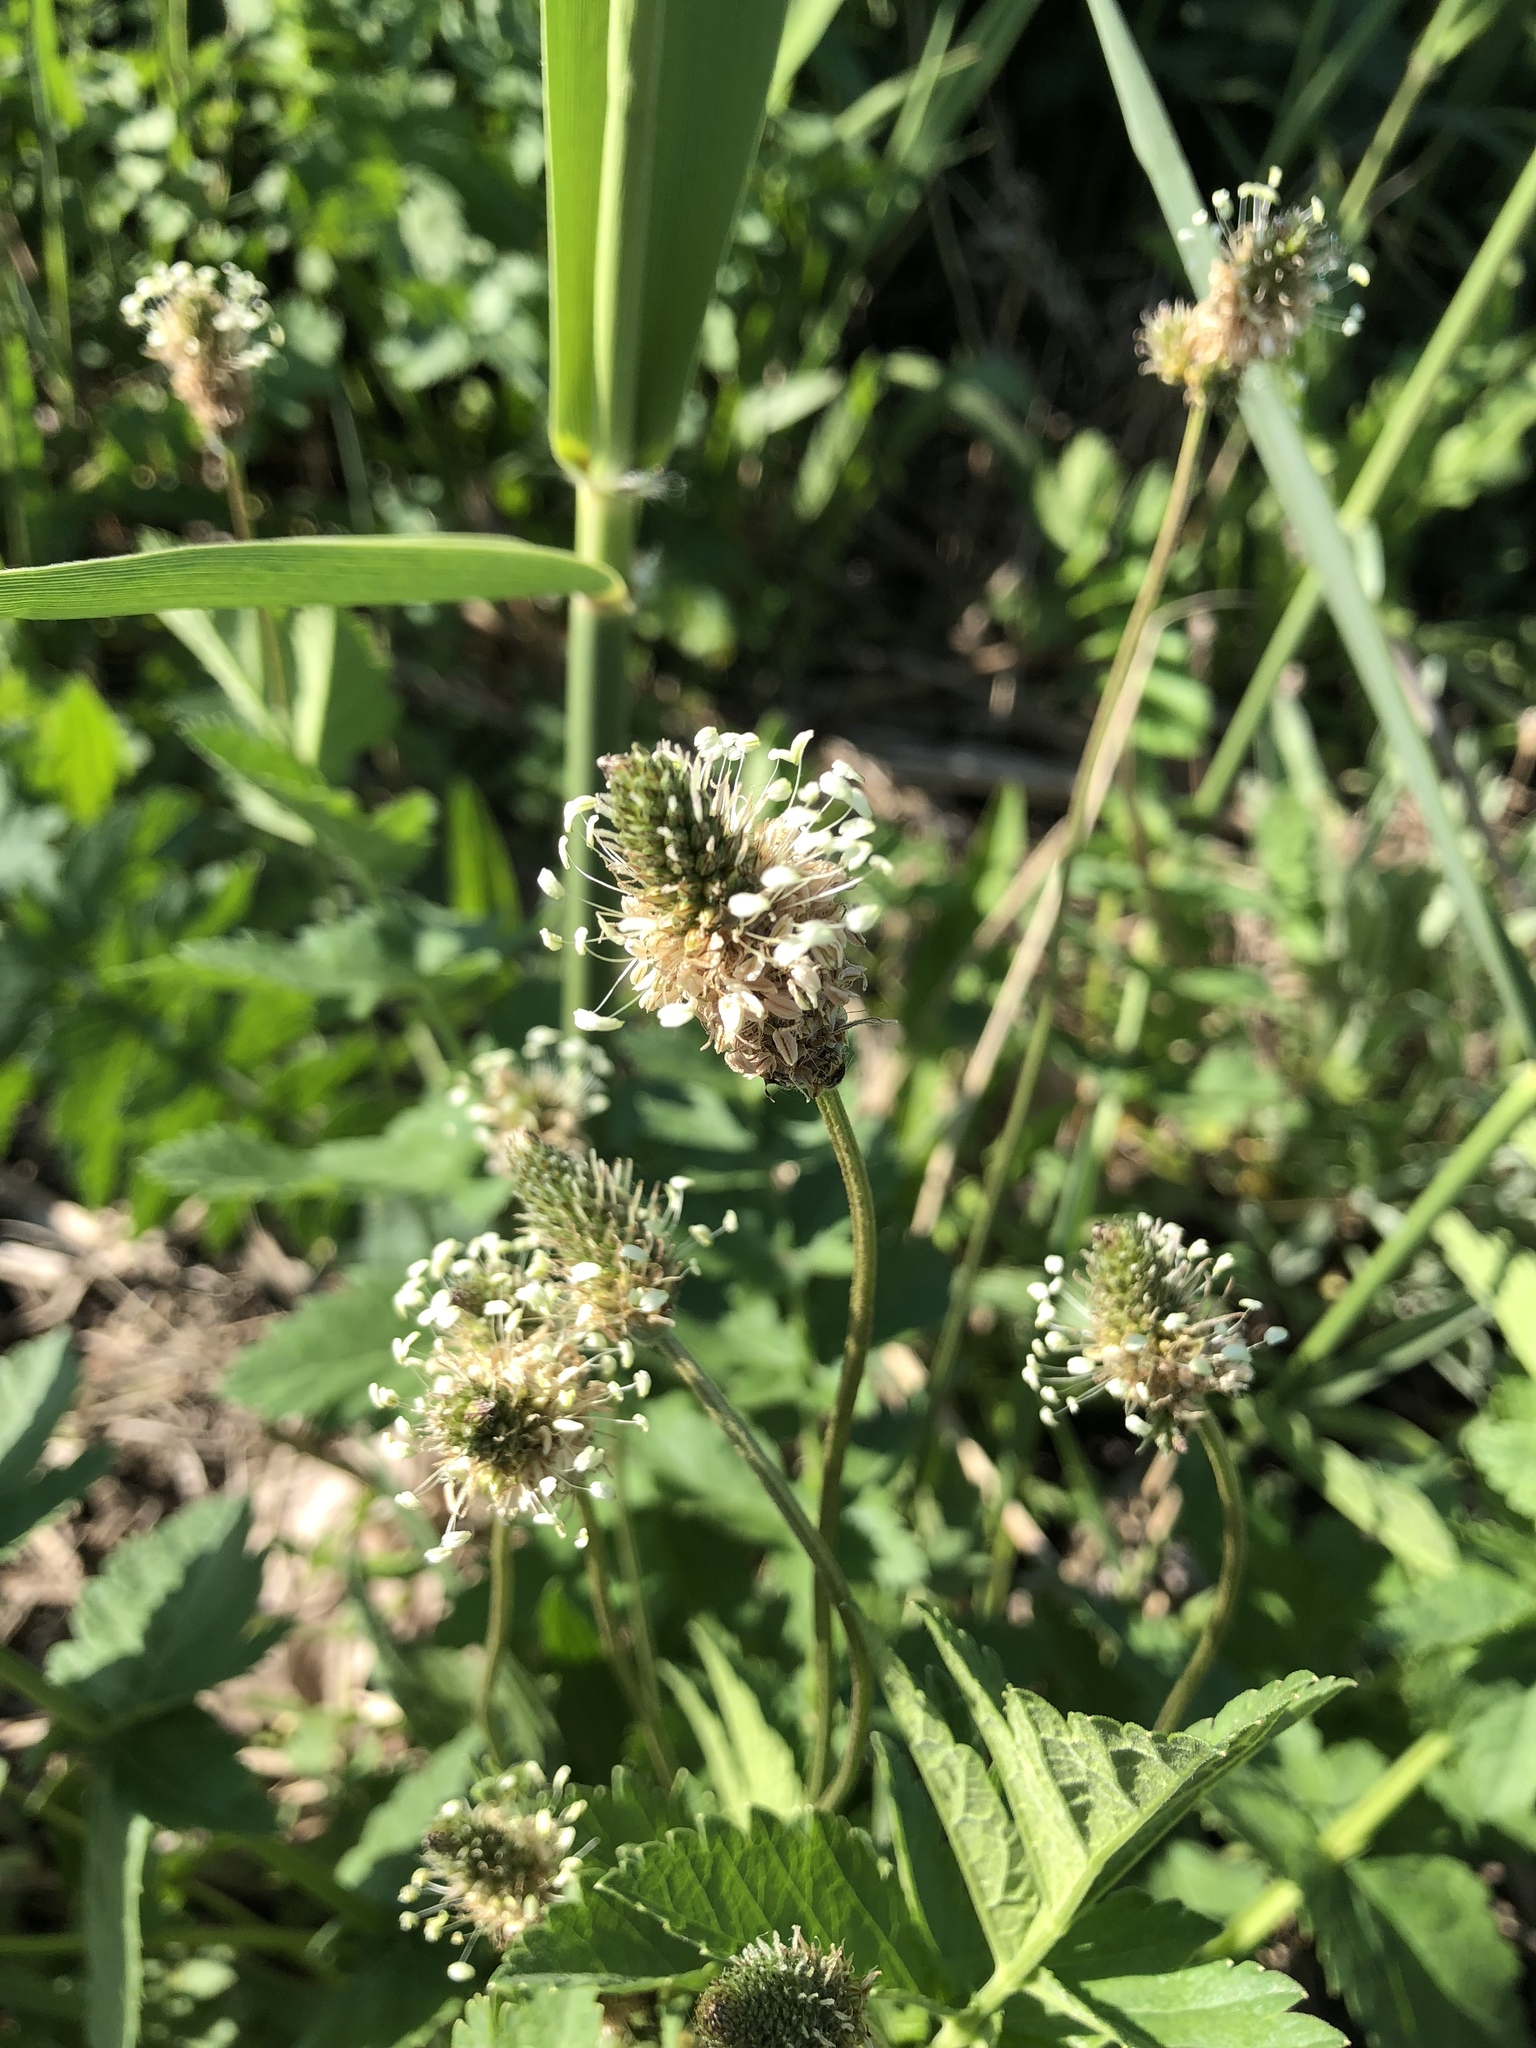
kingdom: Plantae
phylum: Tracheophyta
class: Magnoliopsida
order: Lamiales
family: Plantaginaceae
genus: Plantago
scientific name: Plantago lanceolata
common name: Ribwort plantain
